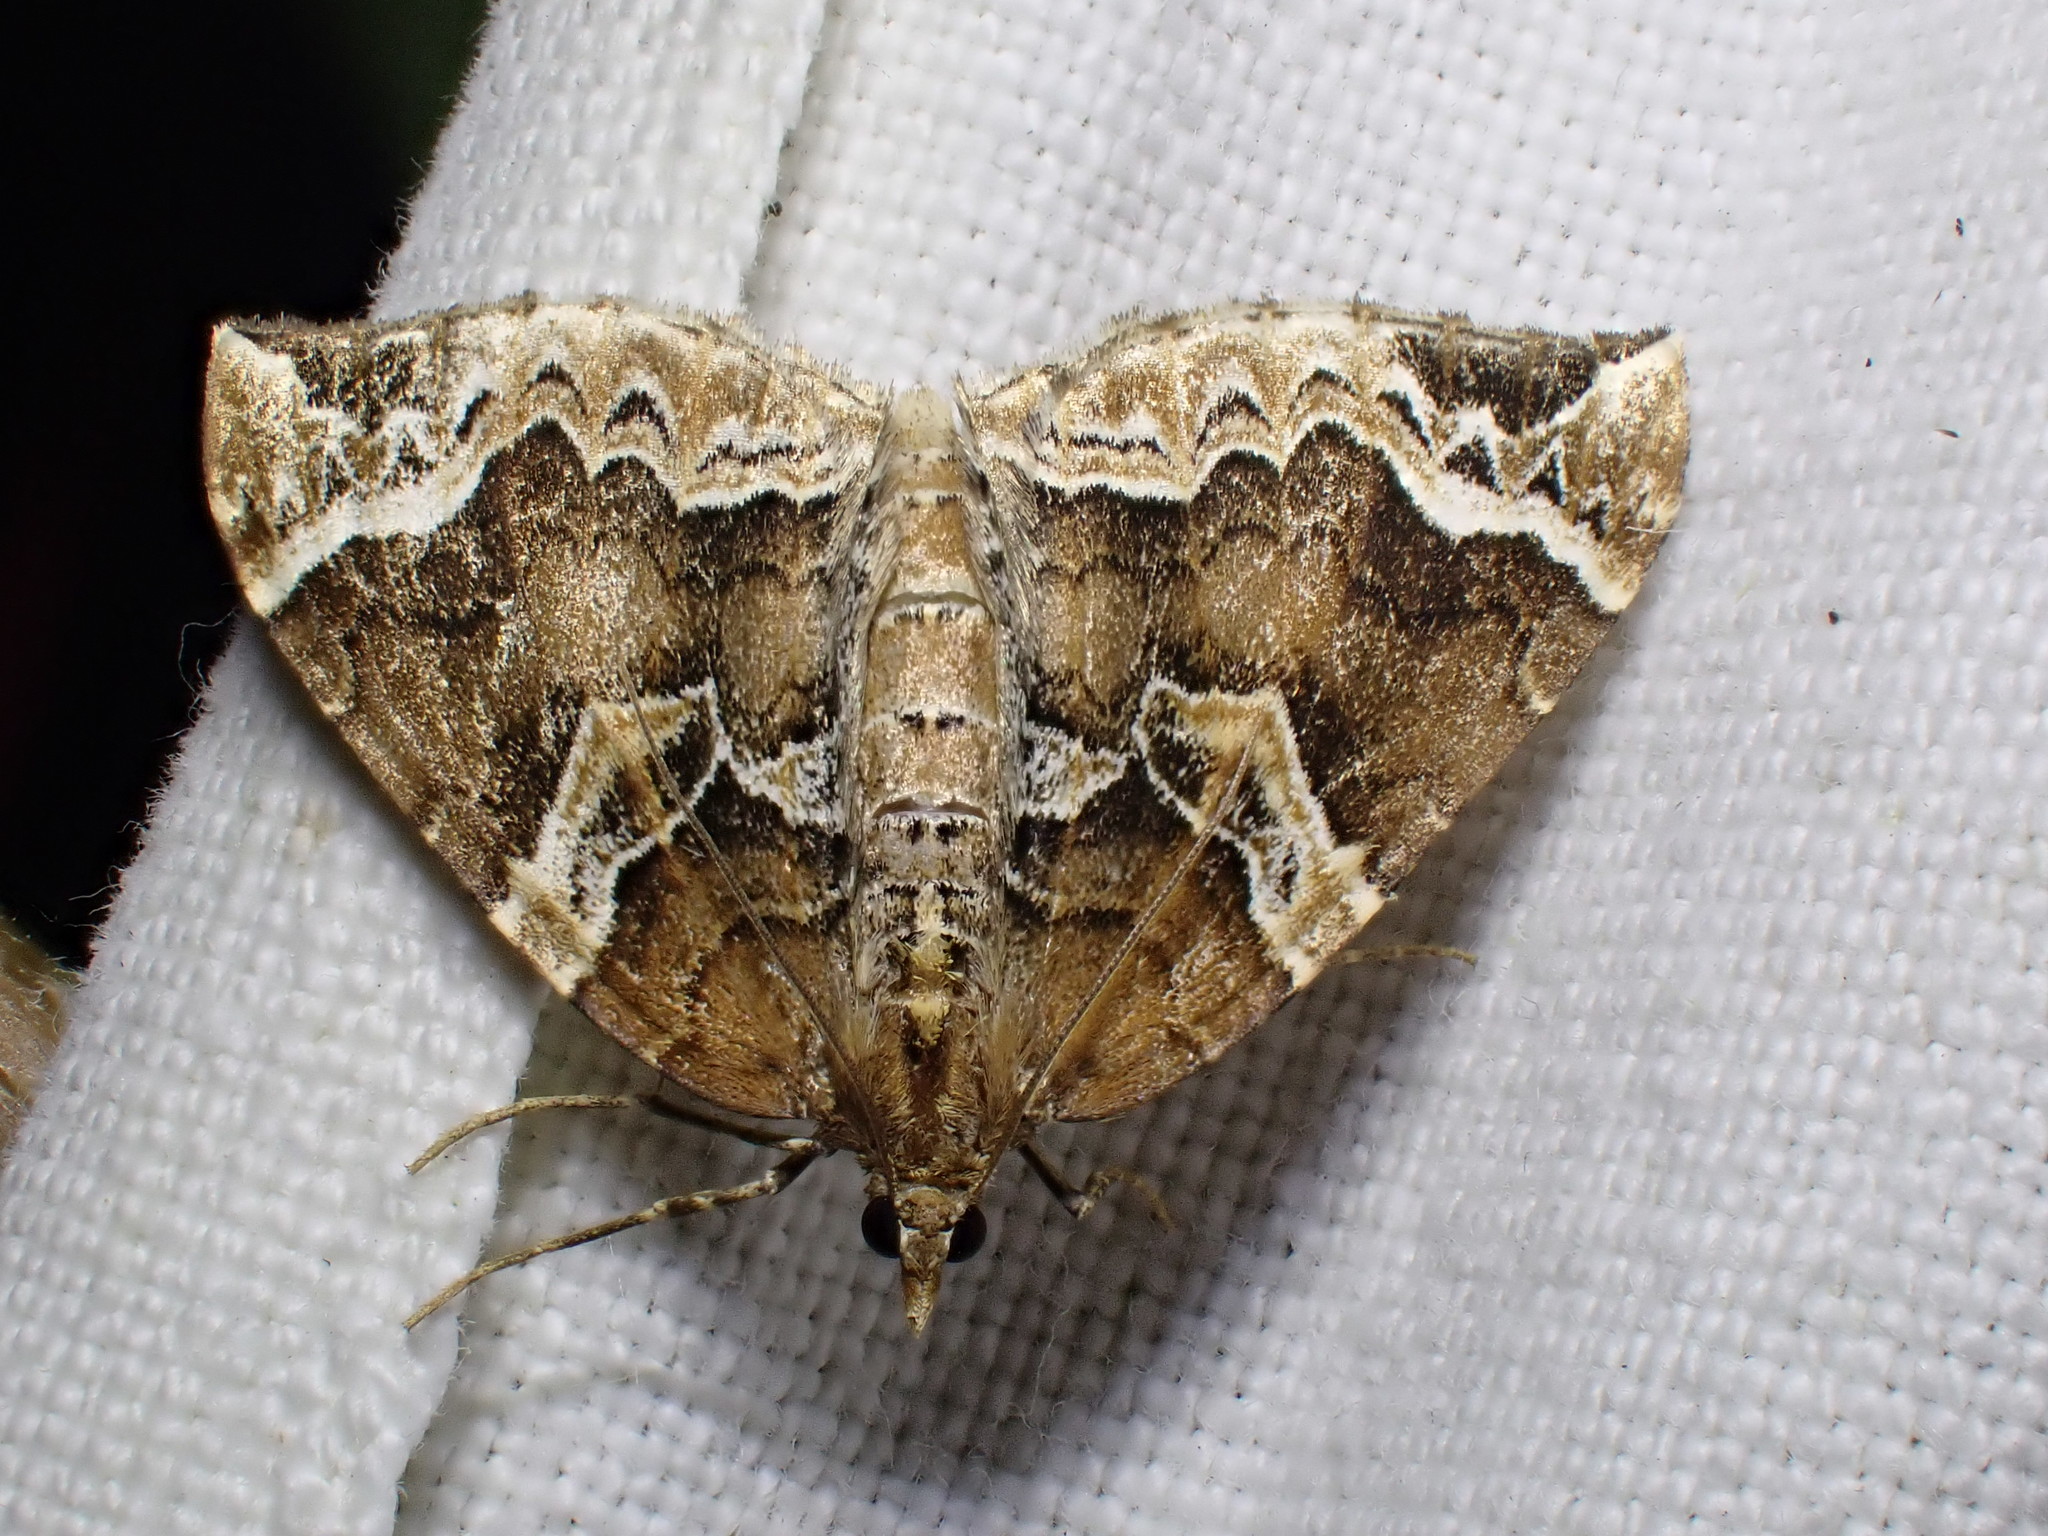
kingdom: Animalia
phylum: Arthropoda
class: Insecta
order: Lepidoptera
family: Geometridae
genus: Eulithis
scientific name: Eulithis prunata
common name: Phoenix
